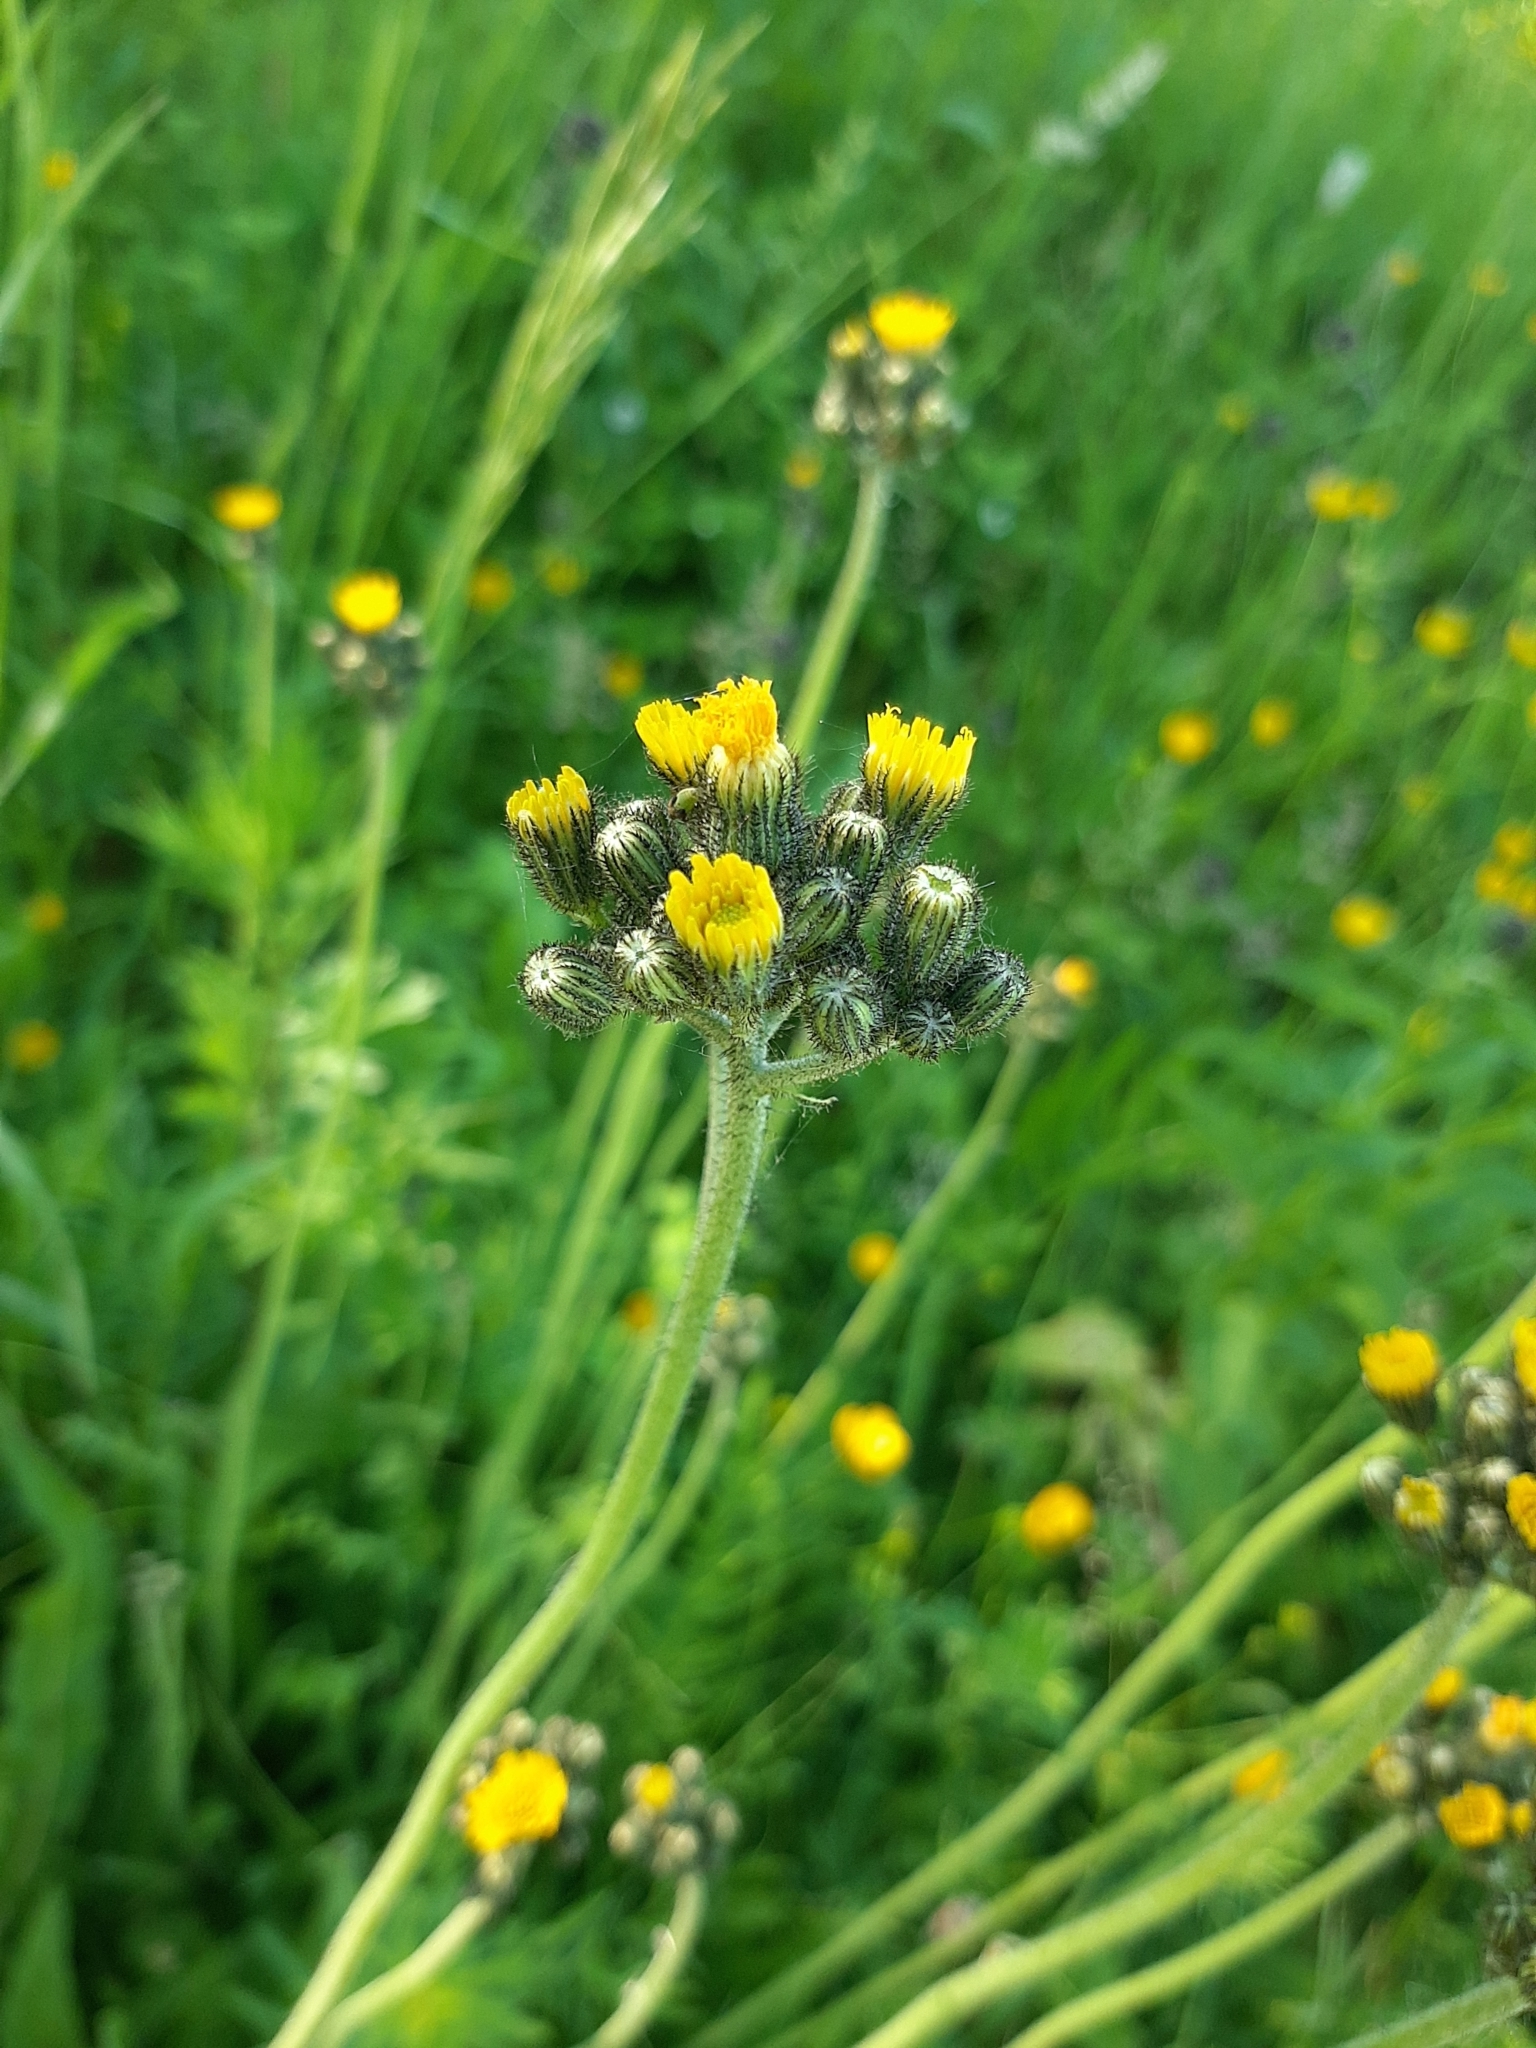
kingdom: Plantae
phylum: Tracheophyta
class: Magnoliopsida
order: Asterales
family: Asteraceae
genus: Pilosella
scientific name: Pilosella
